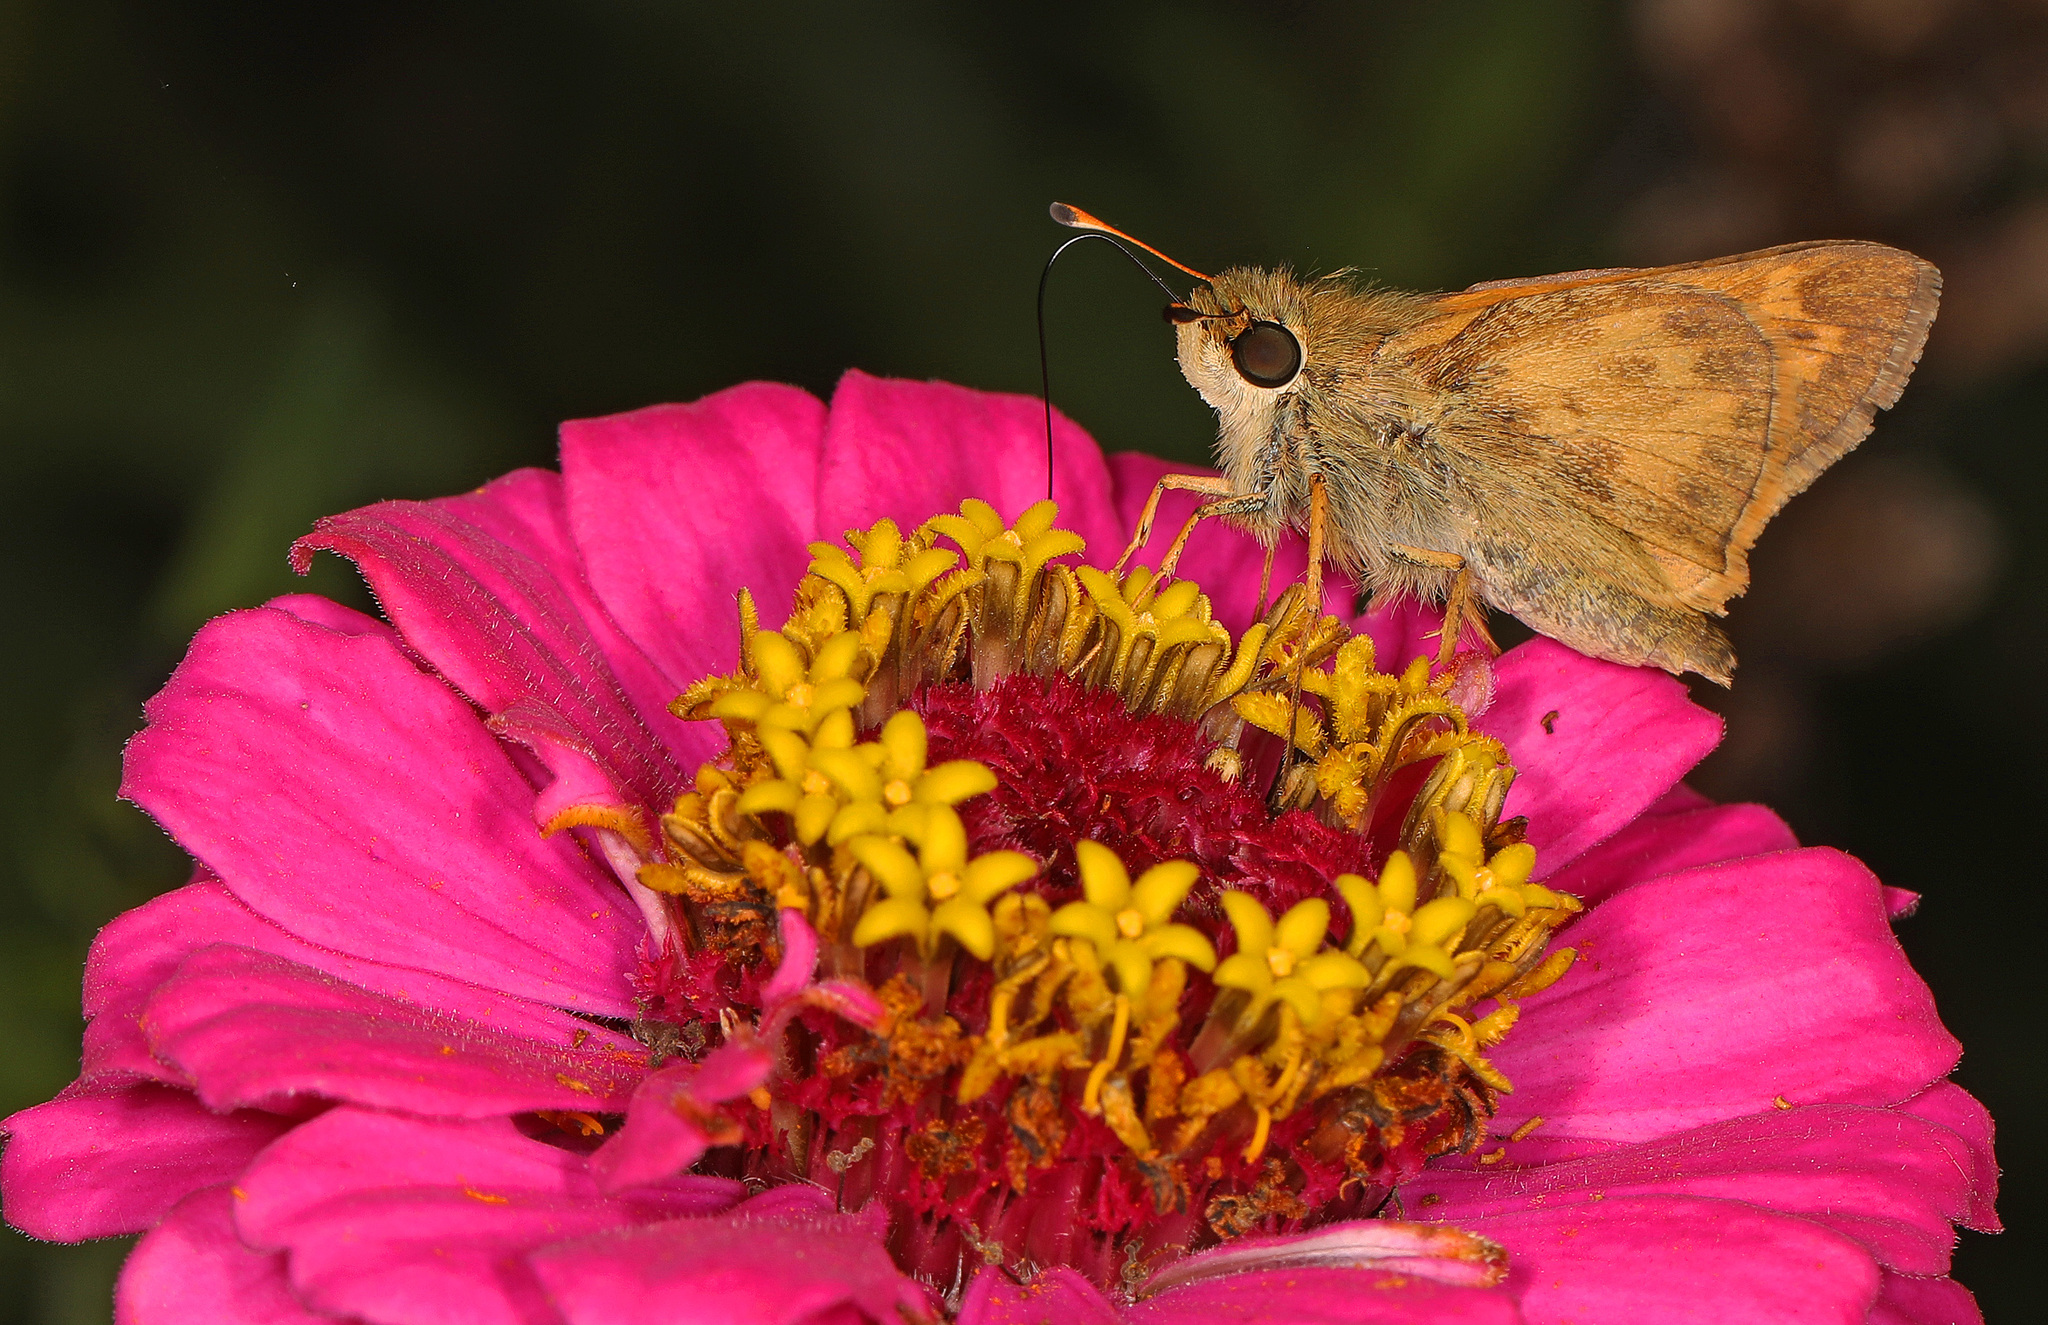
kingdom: Animalia
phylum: Arthropoda
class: Insecta
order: Lepidoptera
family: Hesperiidae
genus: Atalopedes
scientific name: Atalopedes
